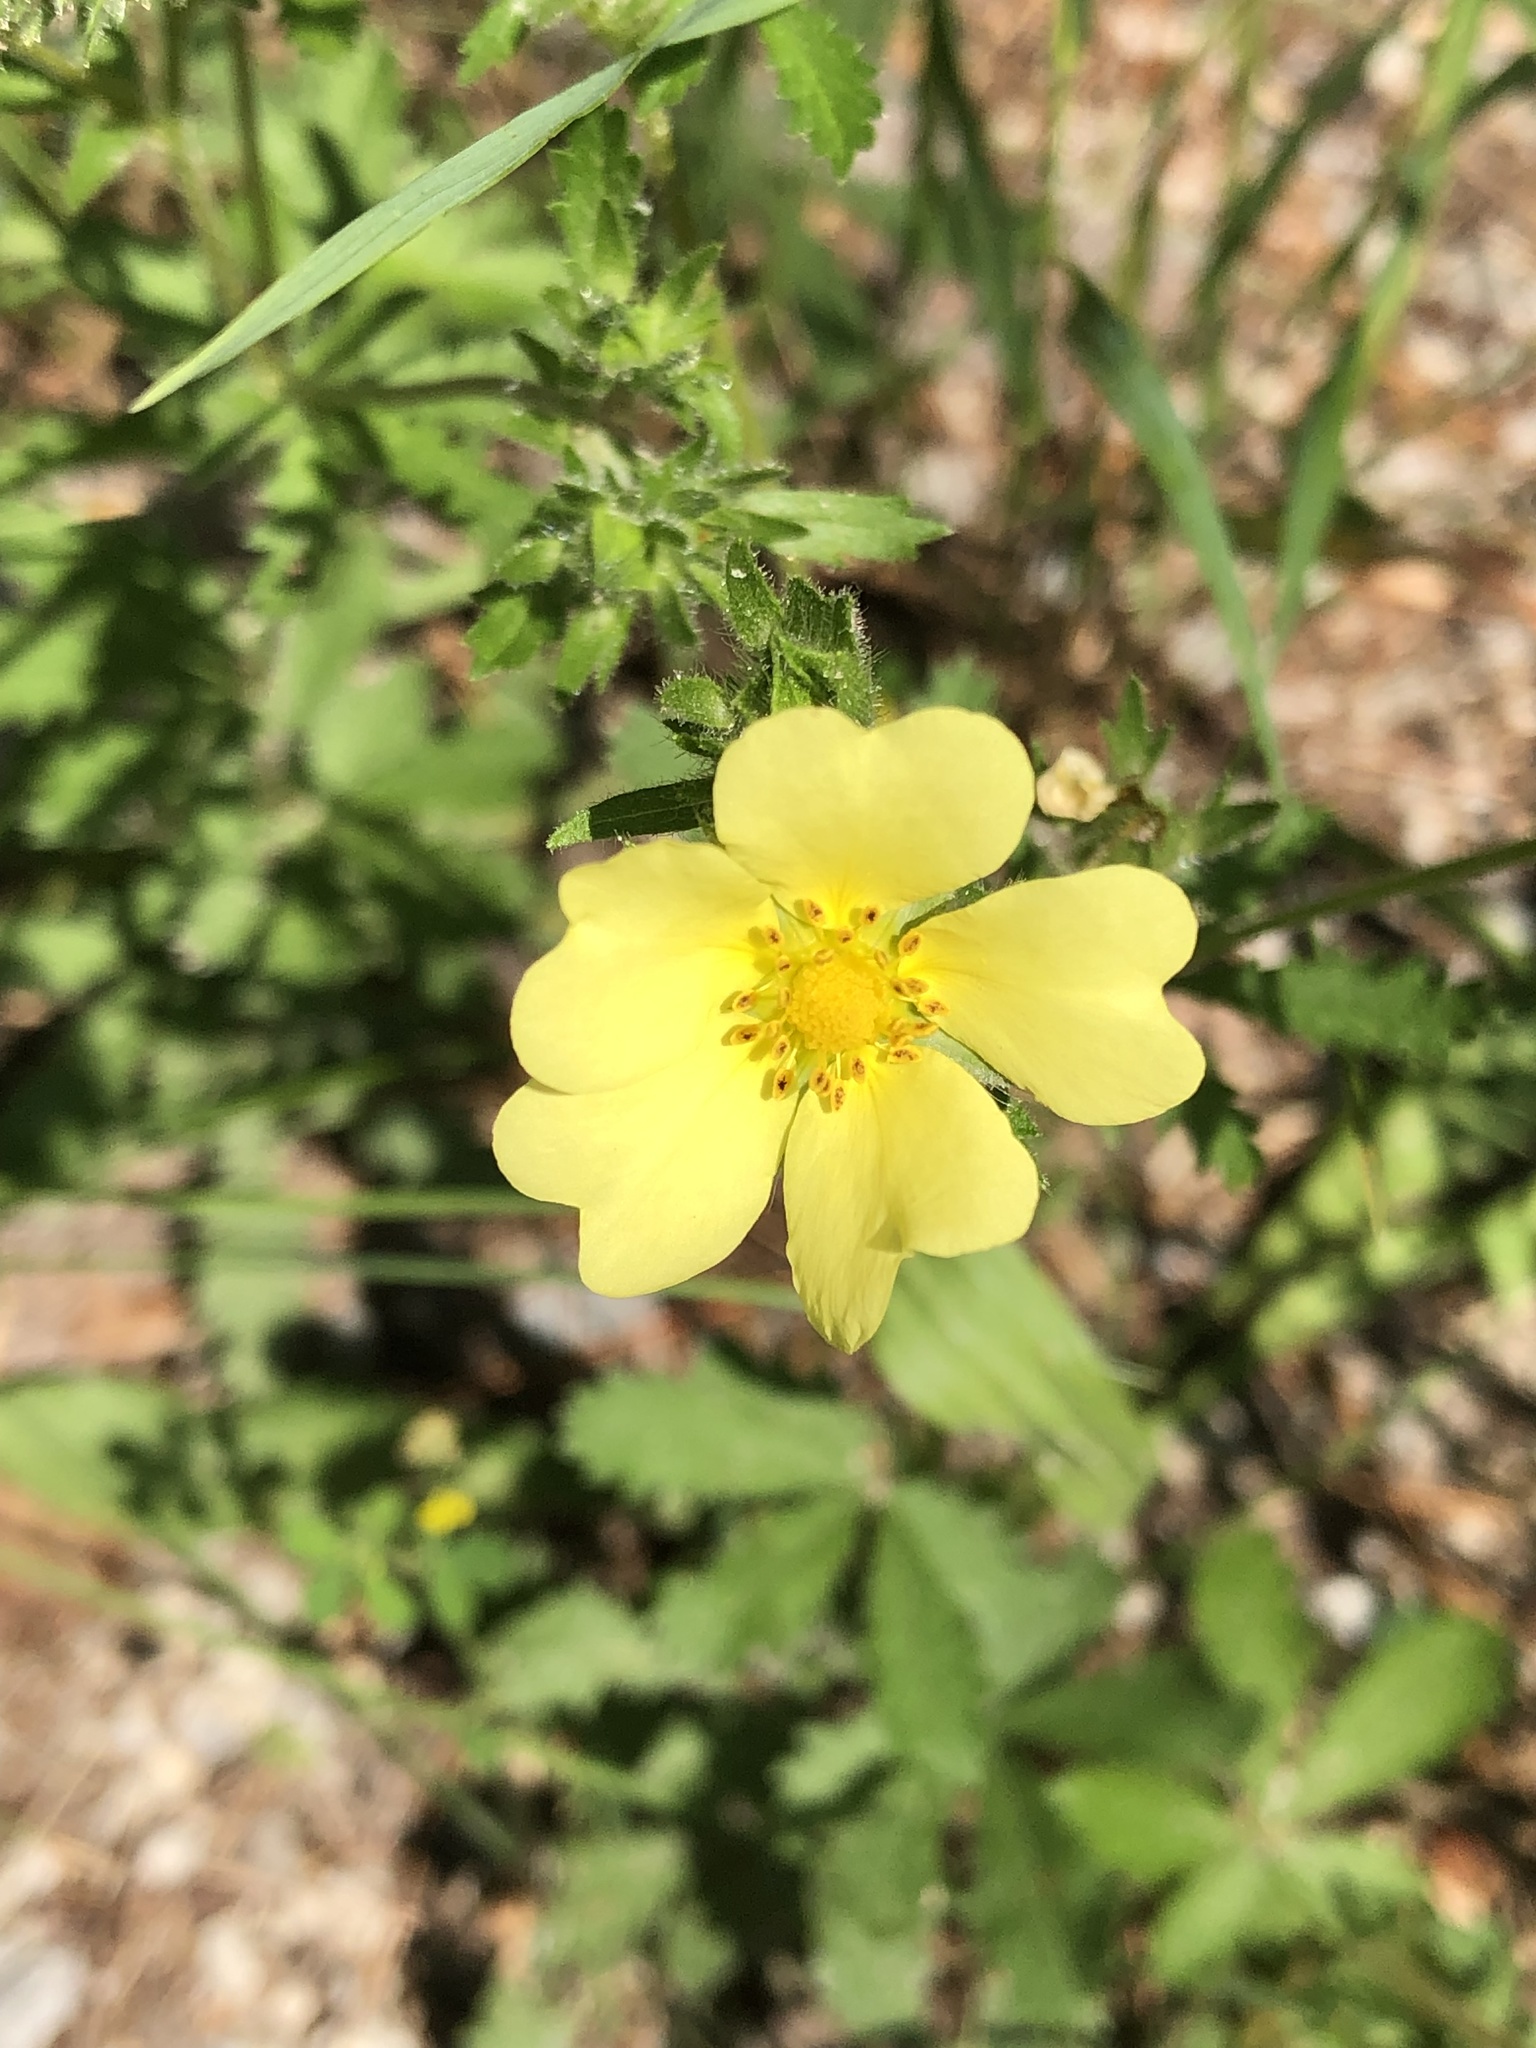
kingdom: Plantae
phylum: Tracheophyta
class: Magnoliopsida
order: Rosales
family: Rosaceae
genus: Potentilla
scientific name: Potentilla recta
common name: Sulphur cinquefoil
